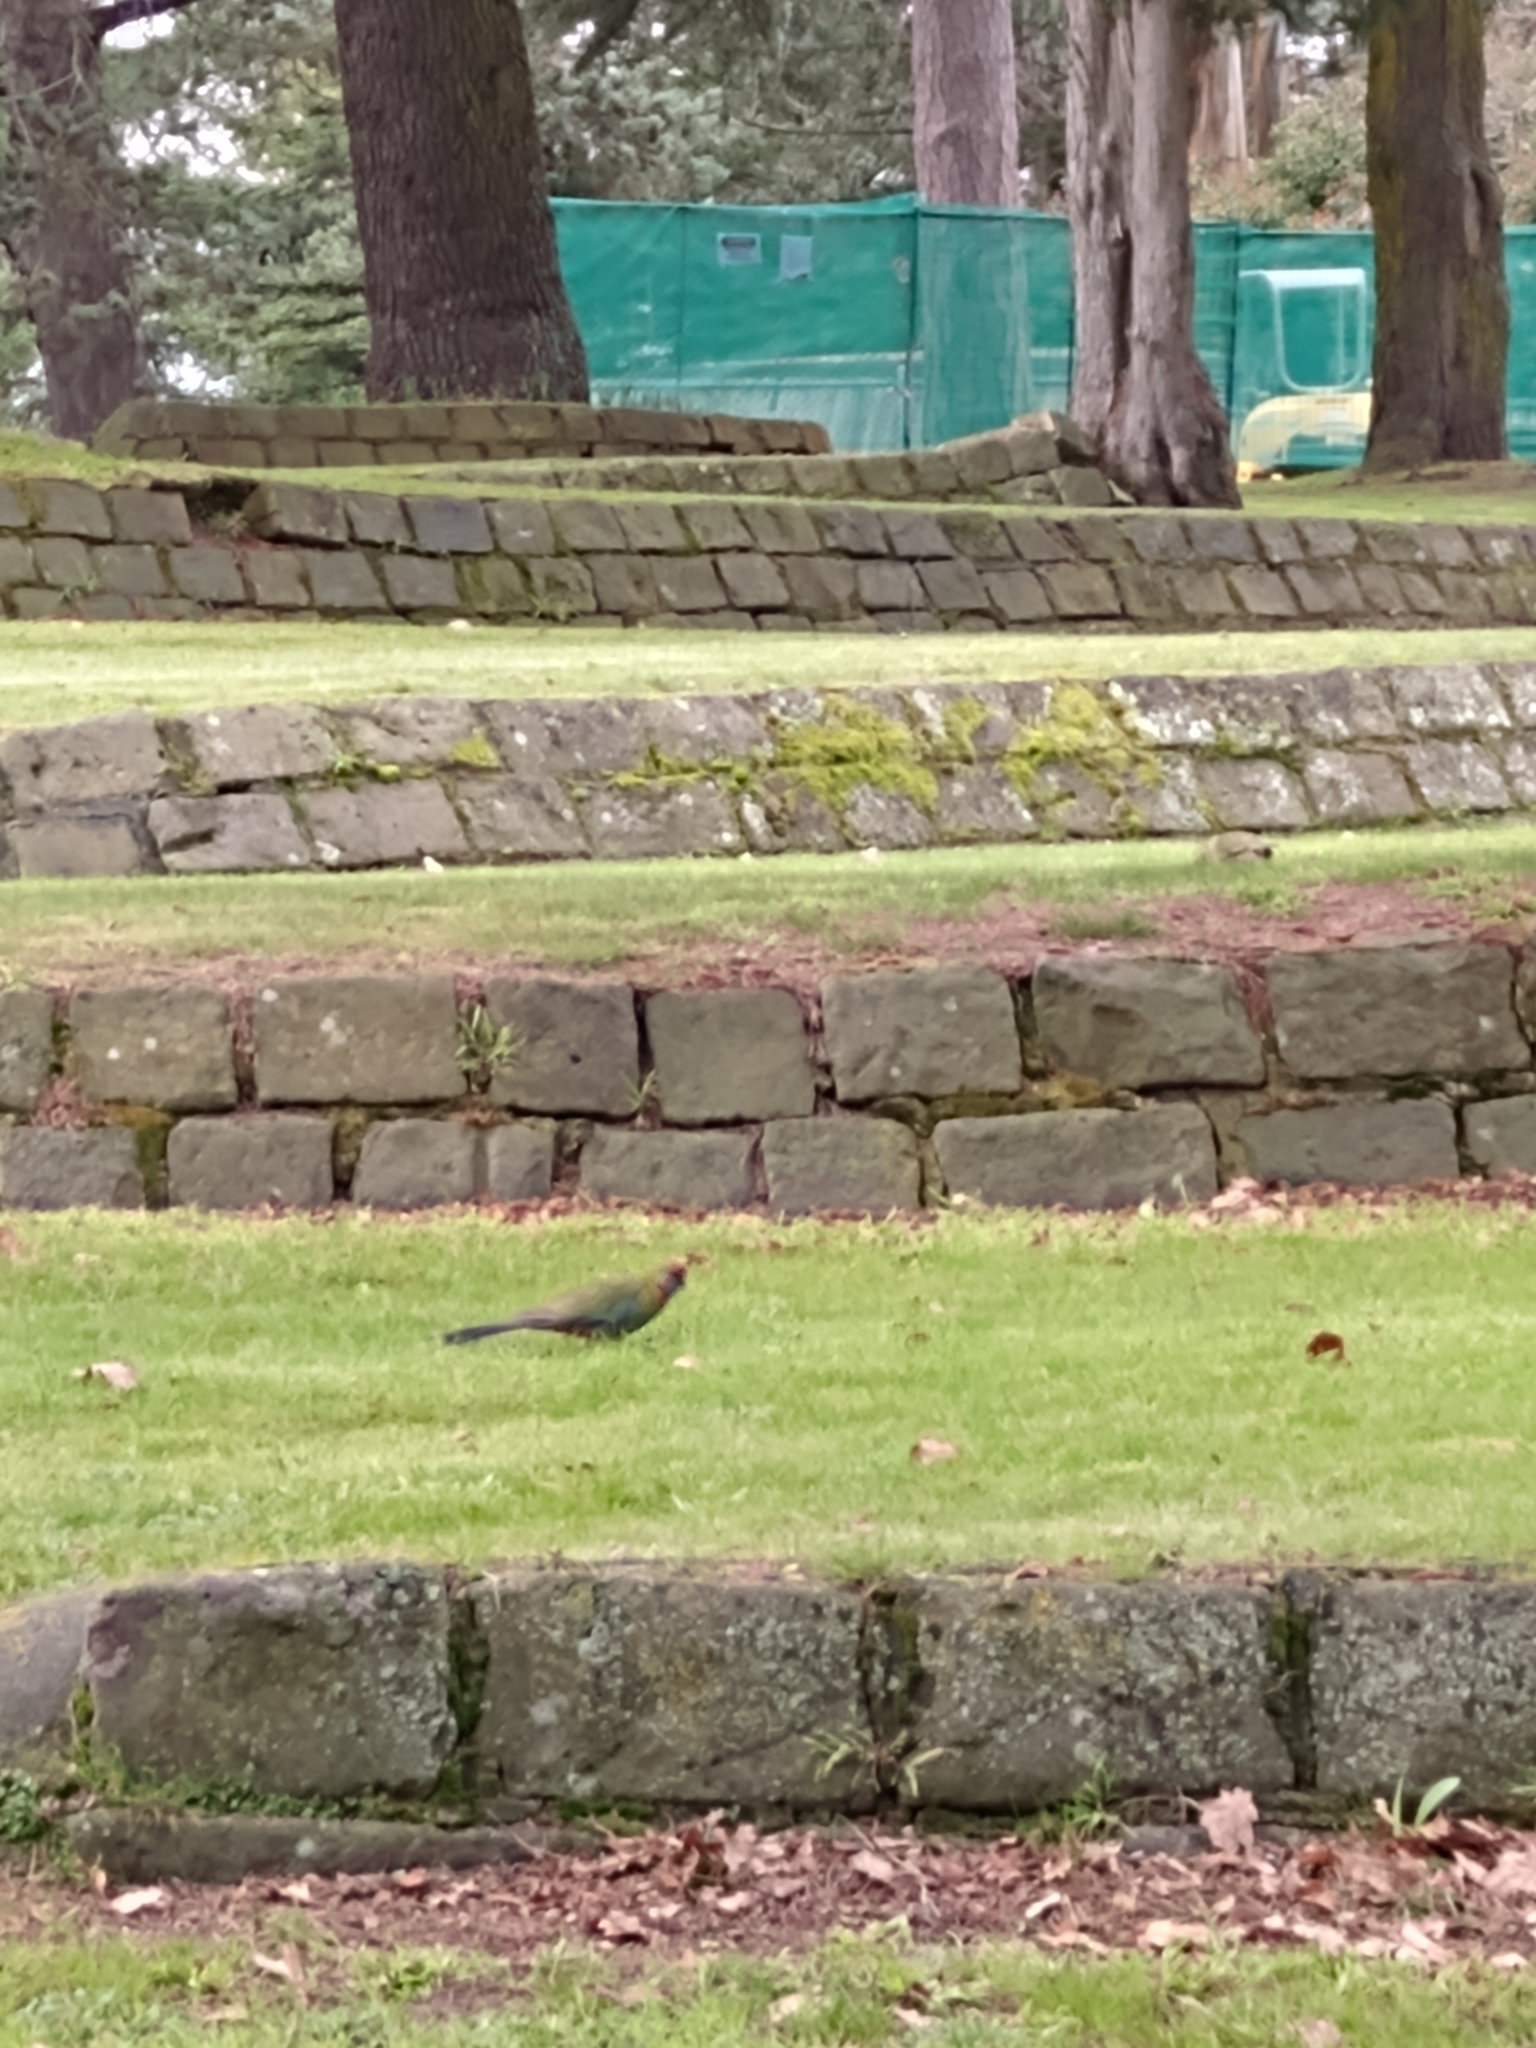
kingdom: Animalia
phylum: Chordata
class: Aves
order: Psittaciformes
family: Psittacidae
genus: Platycercus
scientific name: Platycercus elegans
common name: Crimson rosella
